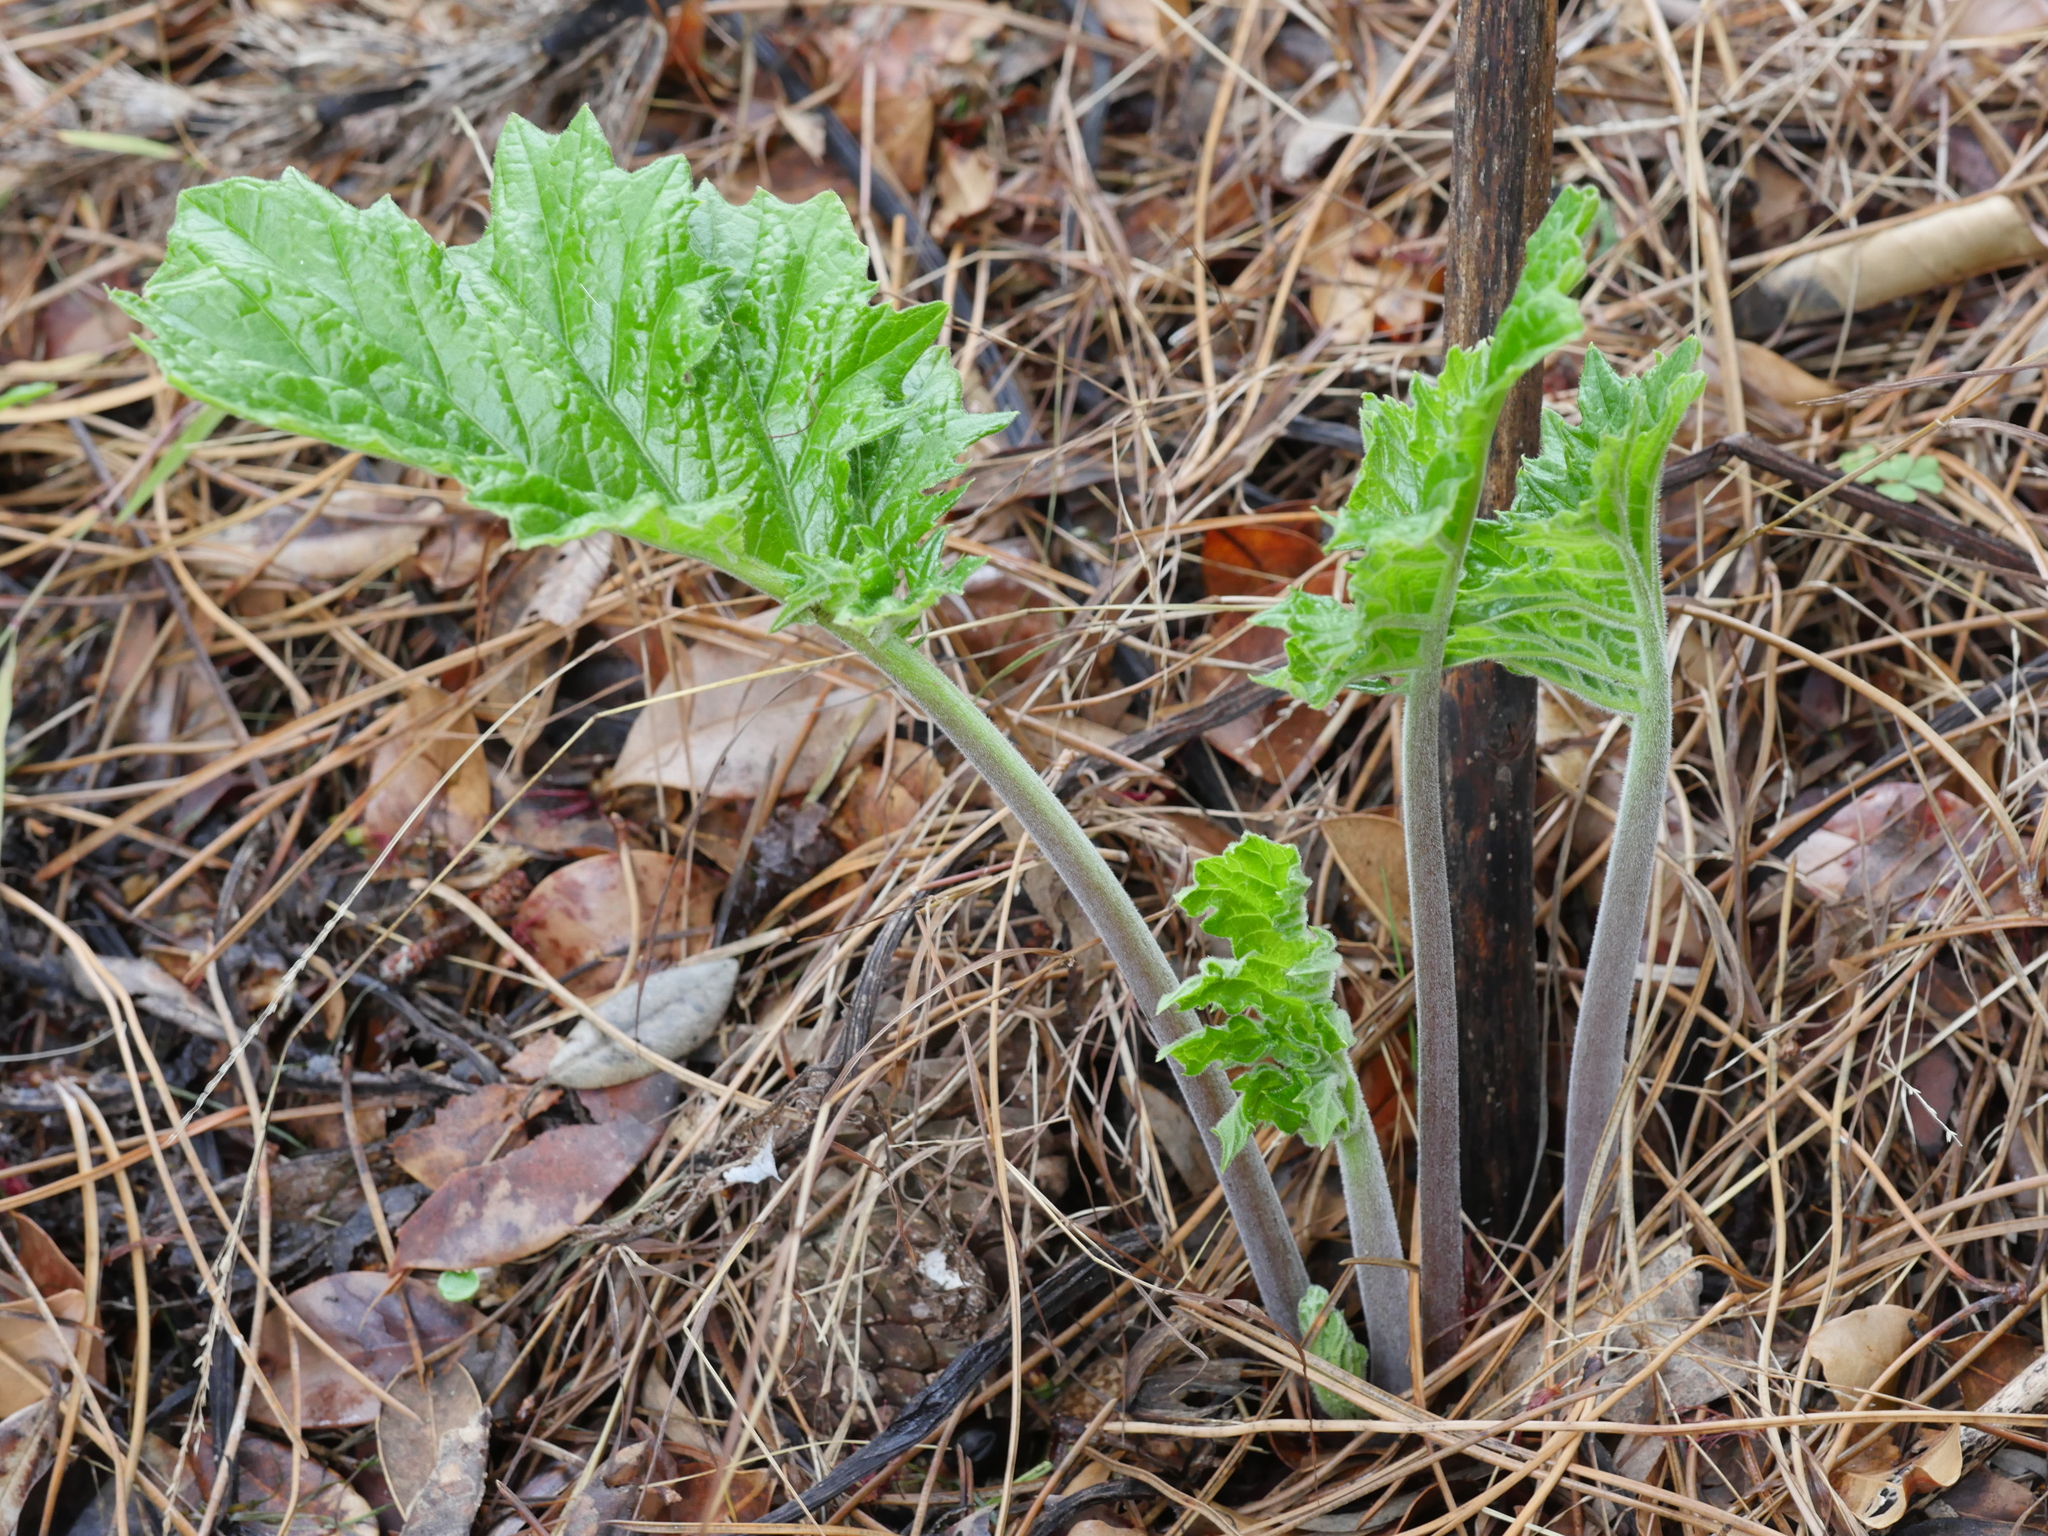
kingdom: Plantae
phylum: Tracheophyta
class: Magnoliopsida
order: Lamiales
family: Acanthaceae
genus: Acanthus
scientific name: Acanthus mollis
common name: Bear's-breech
